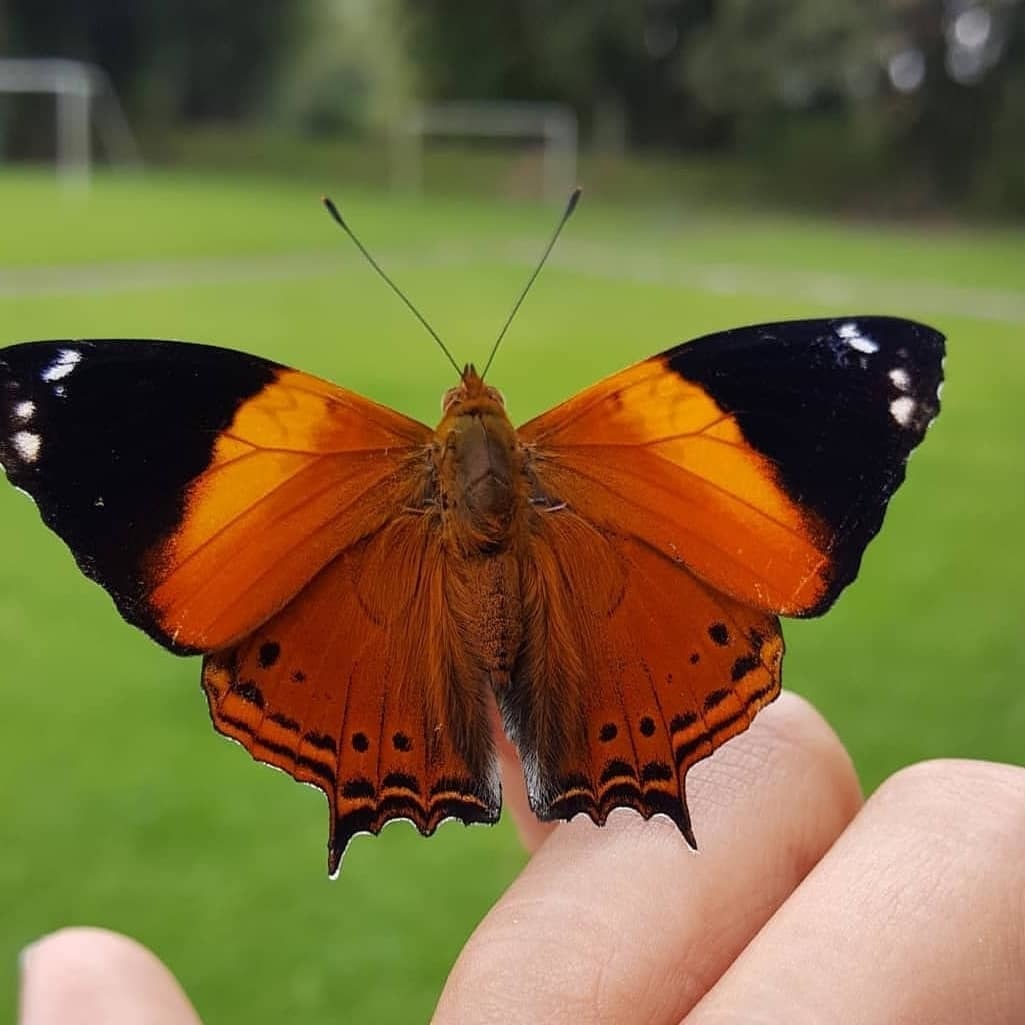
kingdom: Animalia
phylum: Arthropoda
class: Insecta
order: Lepidoptera
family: Nymphalidae
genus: Hypanartia
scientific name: Hypanartia godmanii
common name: Godman's mapwing
